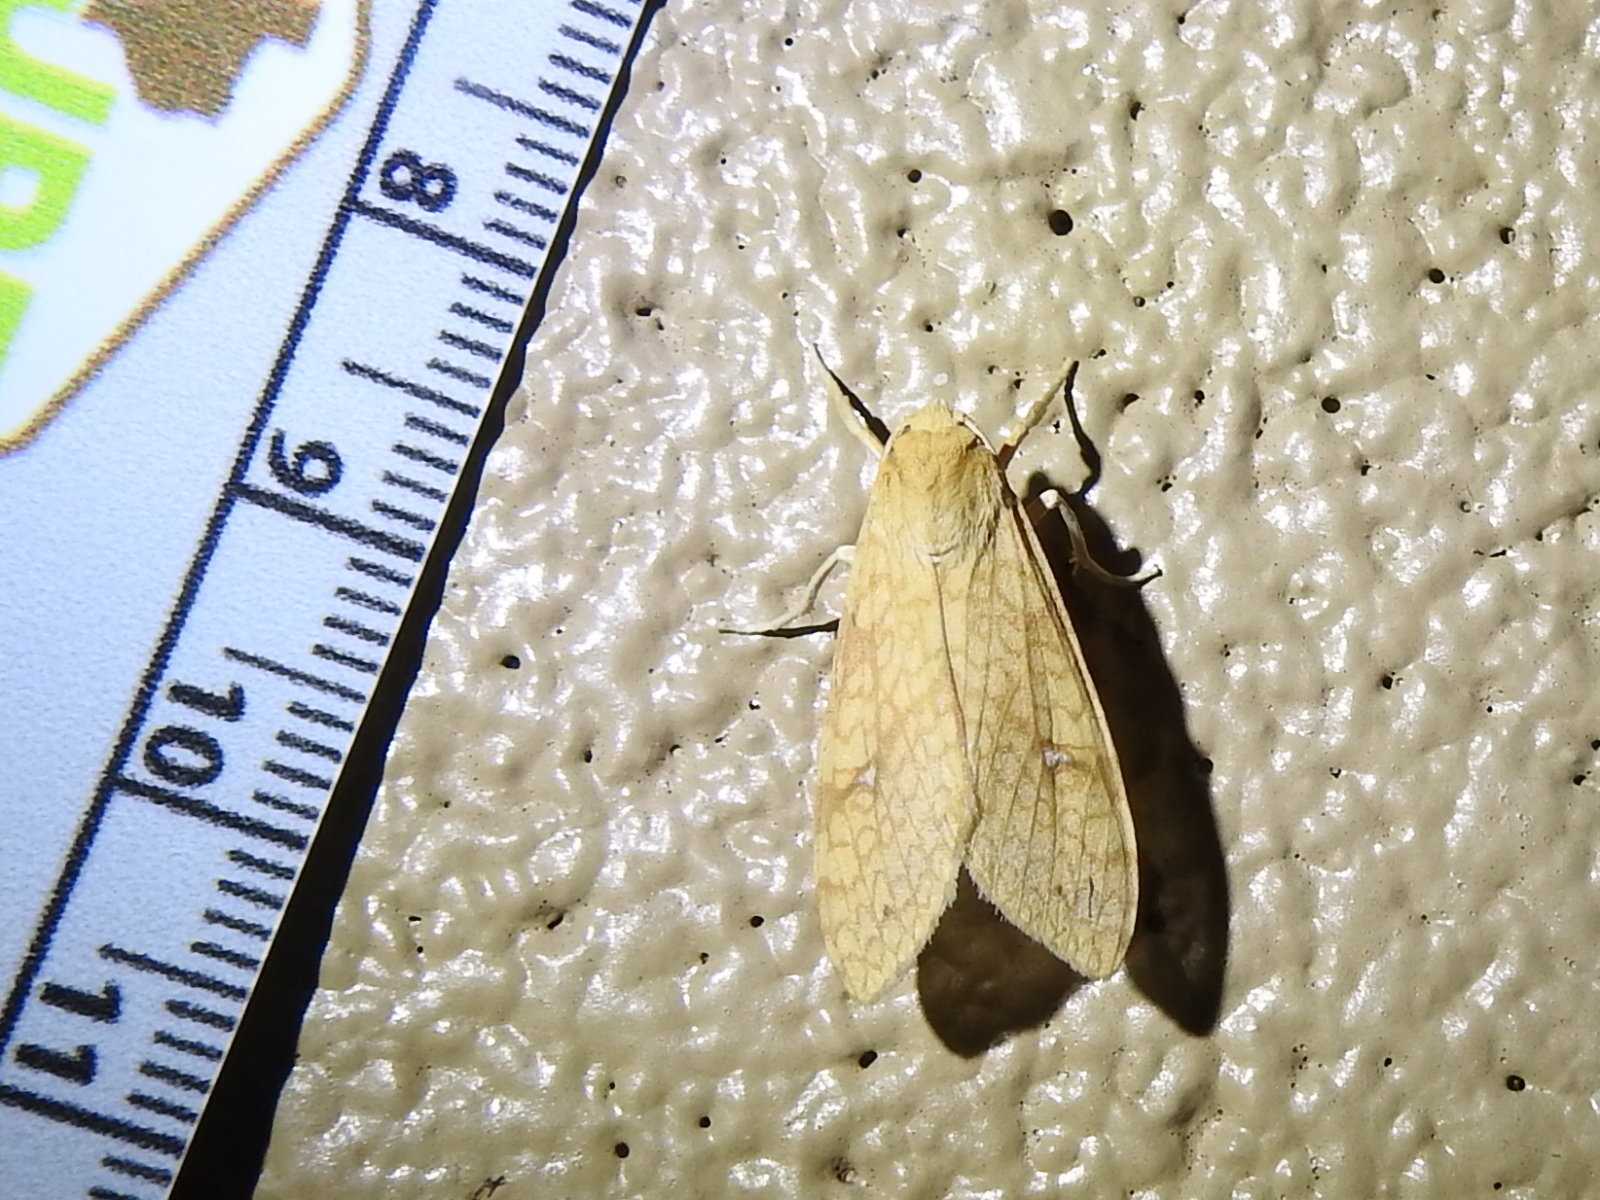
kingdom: Animalia
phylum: Arthropoda
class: Insecta
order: Lepidoptera
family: Erebidae
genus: Lophocampa
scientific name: Lophocampa annulosa
